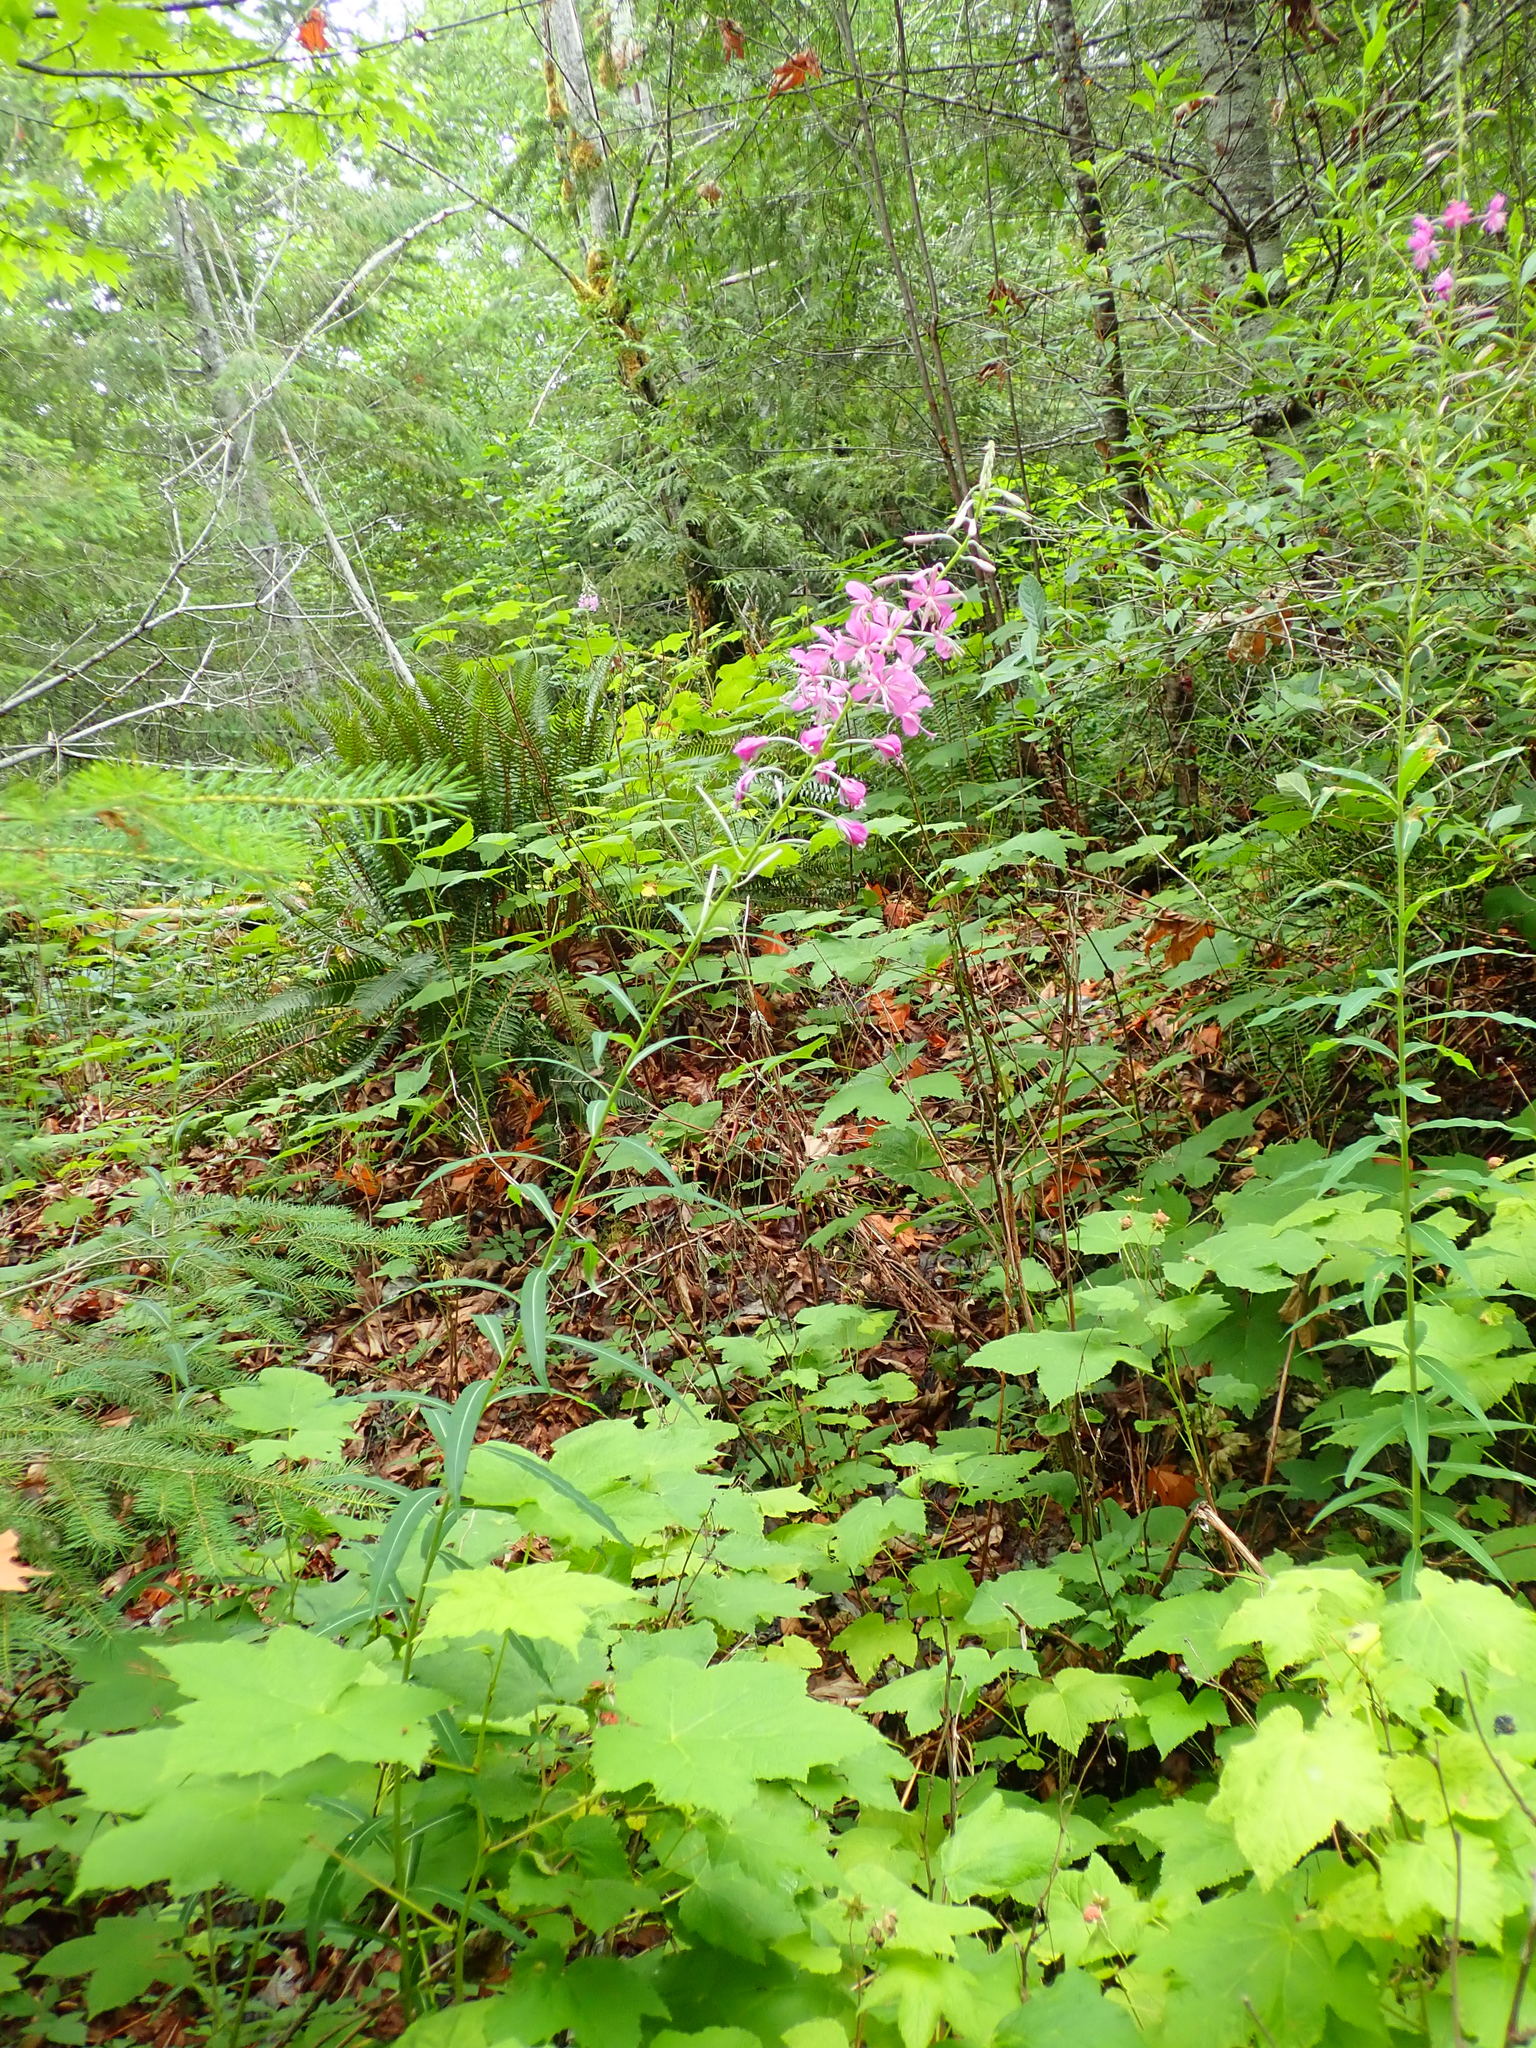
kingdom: Plantae
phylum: Tracheophyta
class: Magnoliopsida
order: Myrtales
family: Onagraceae
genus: Chamaenerion
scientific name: Chamaenerion angustifolium
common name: Fireweed
